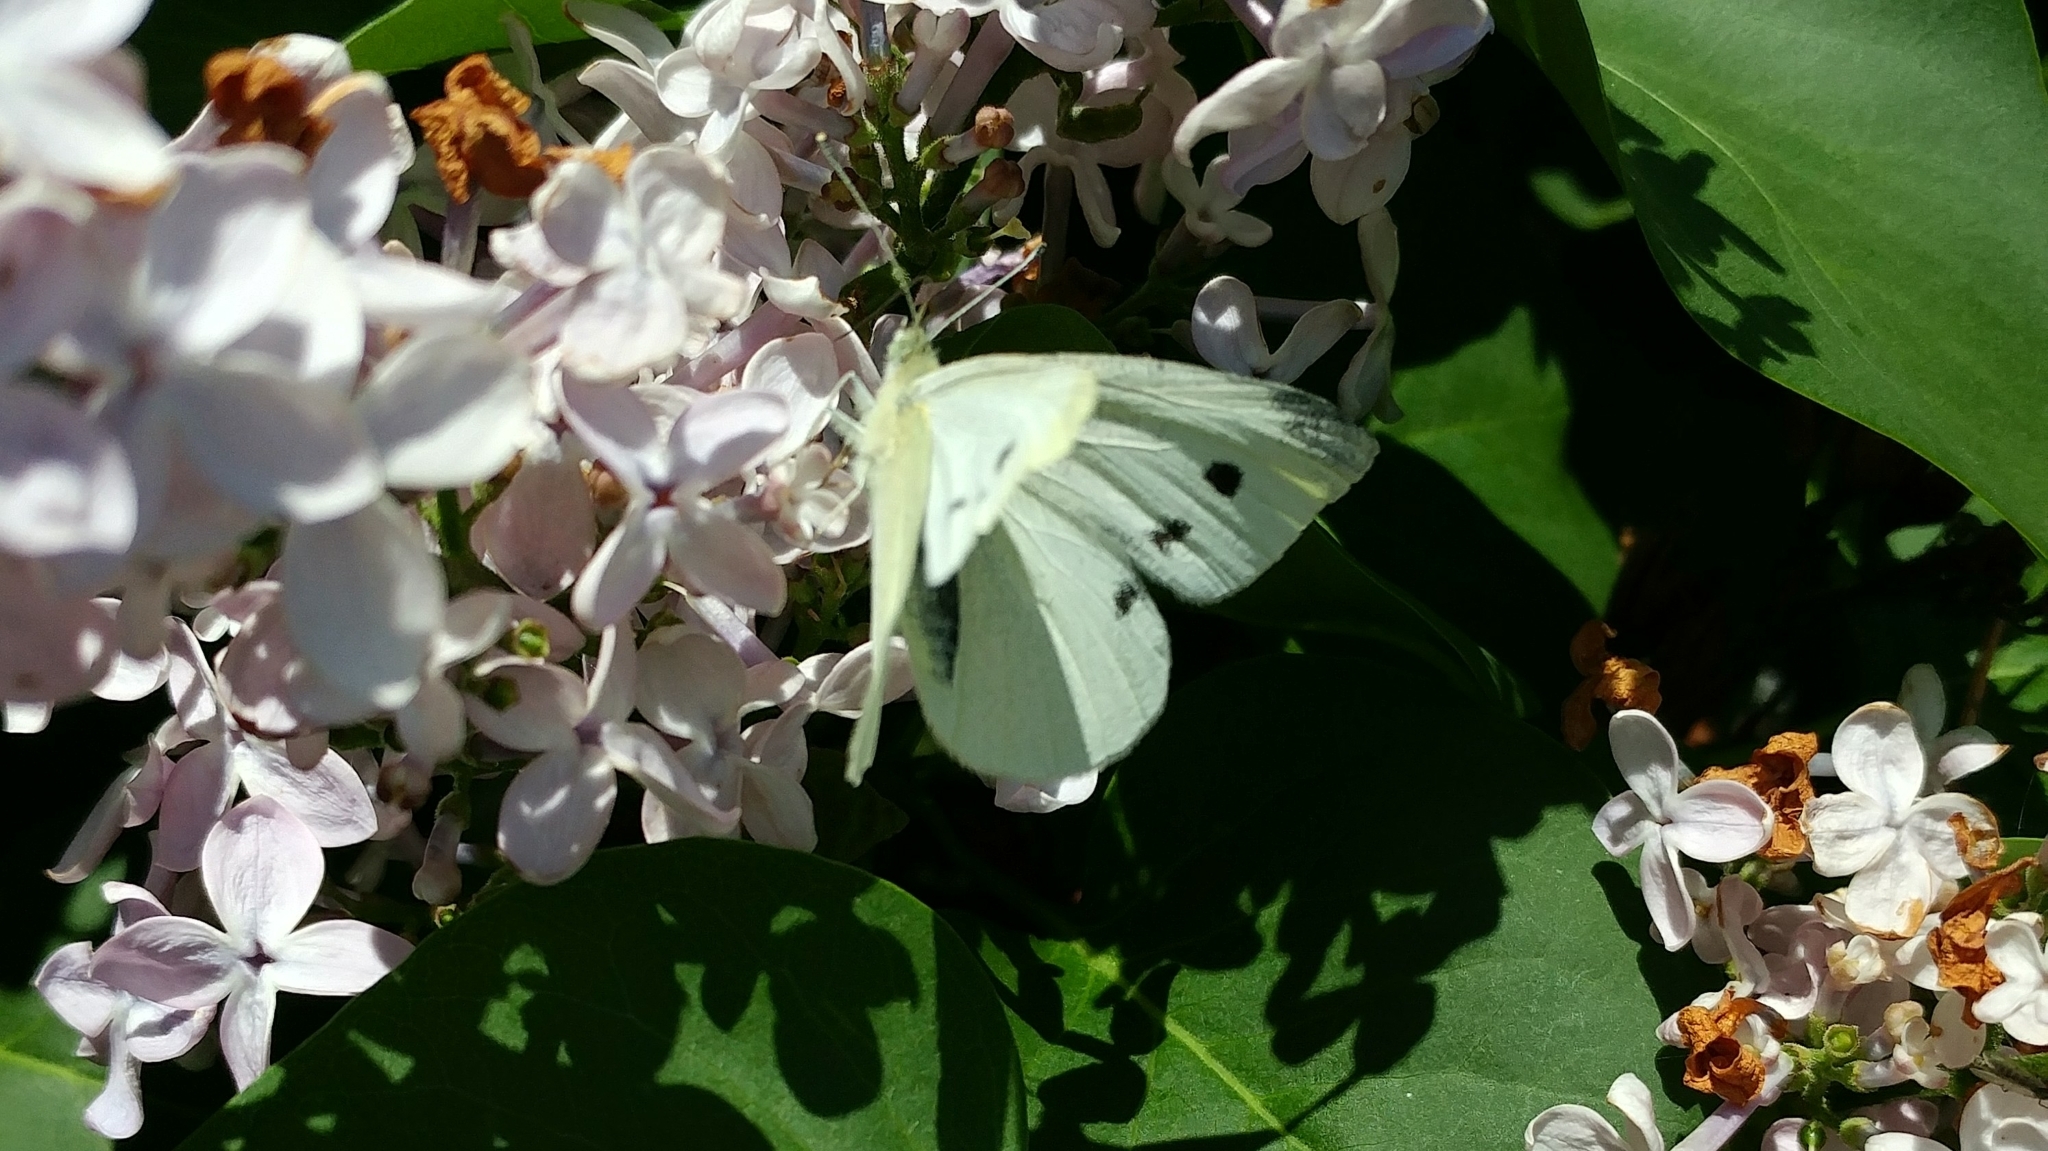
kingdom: Animalia
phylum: Arthropoda
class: Insecta
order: Lepidoptera
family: Pieridae
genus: Pieris
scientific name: Pieris rapae
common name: Small white
